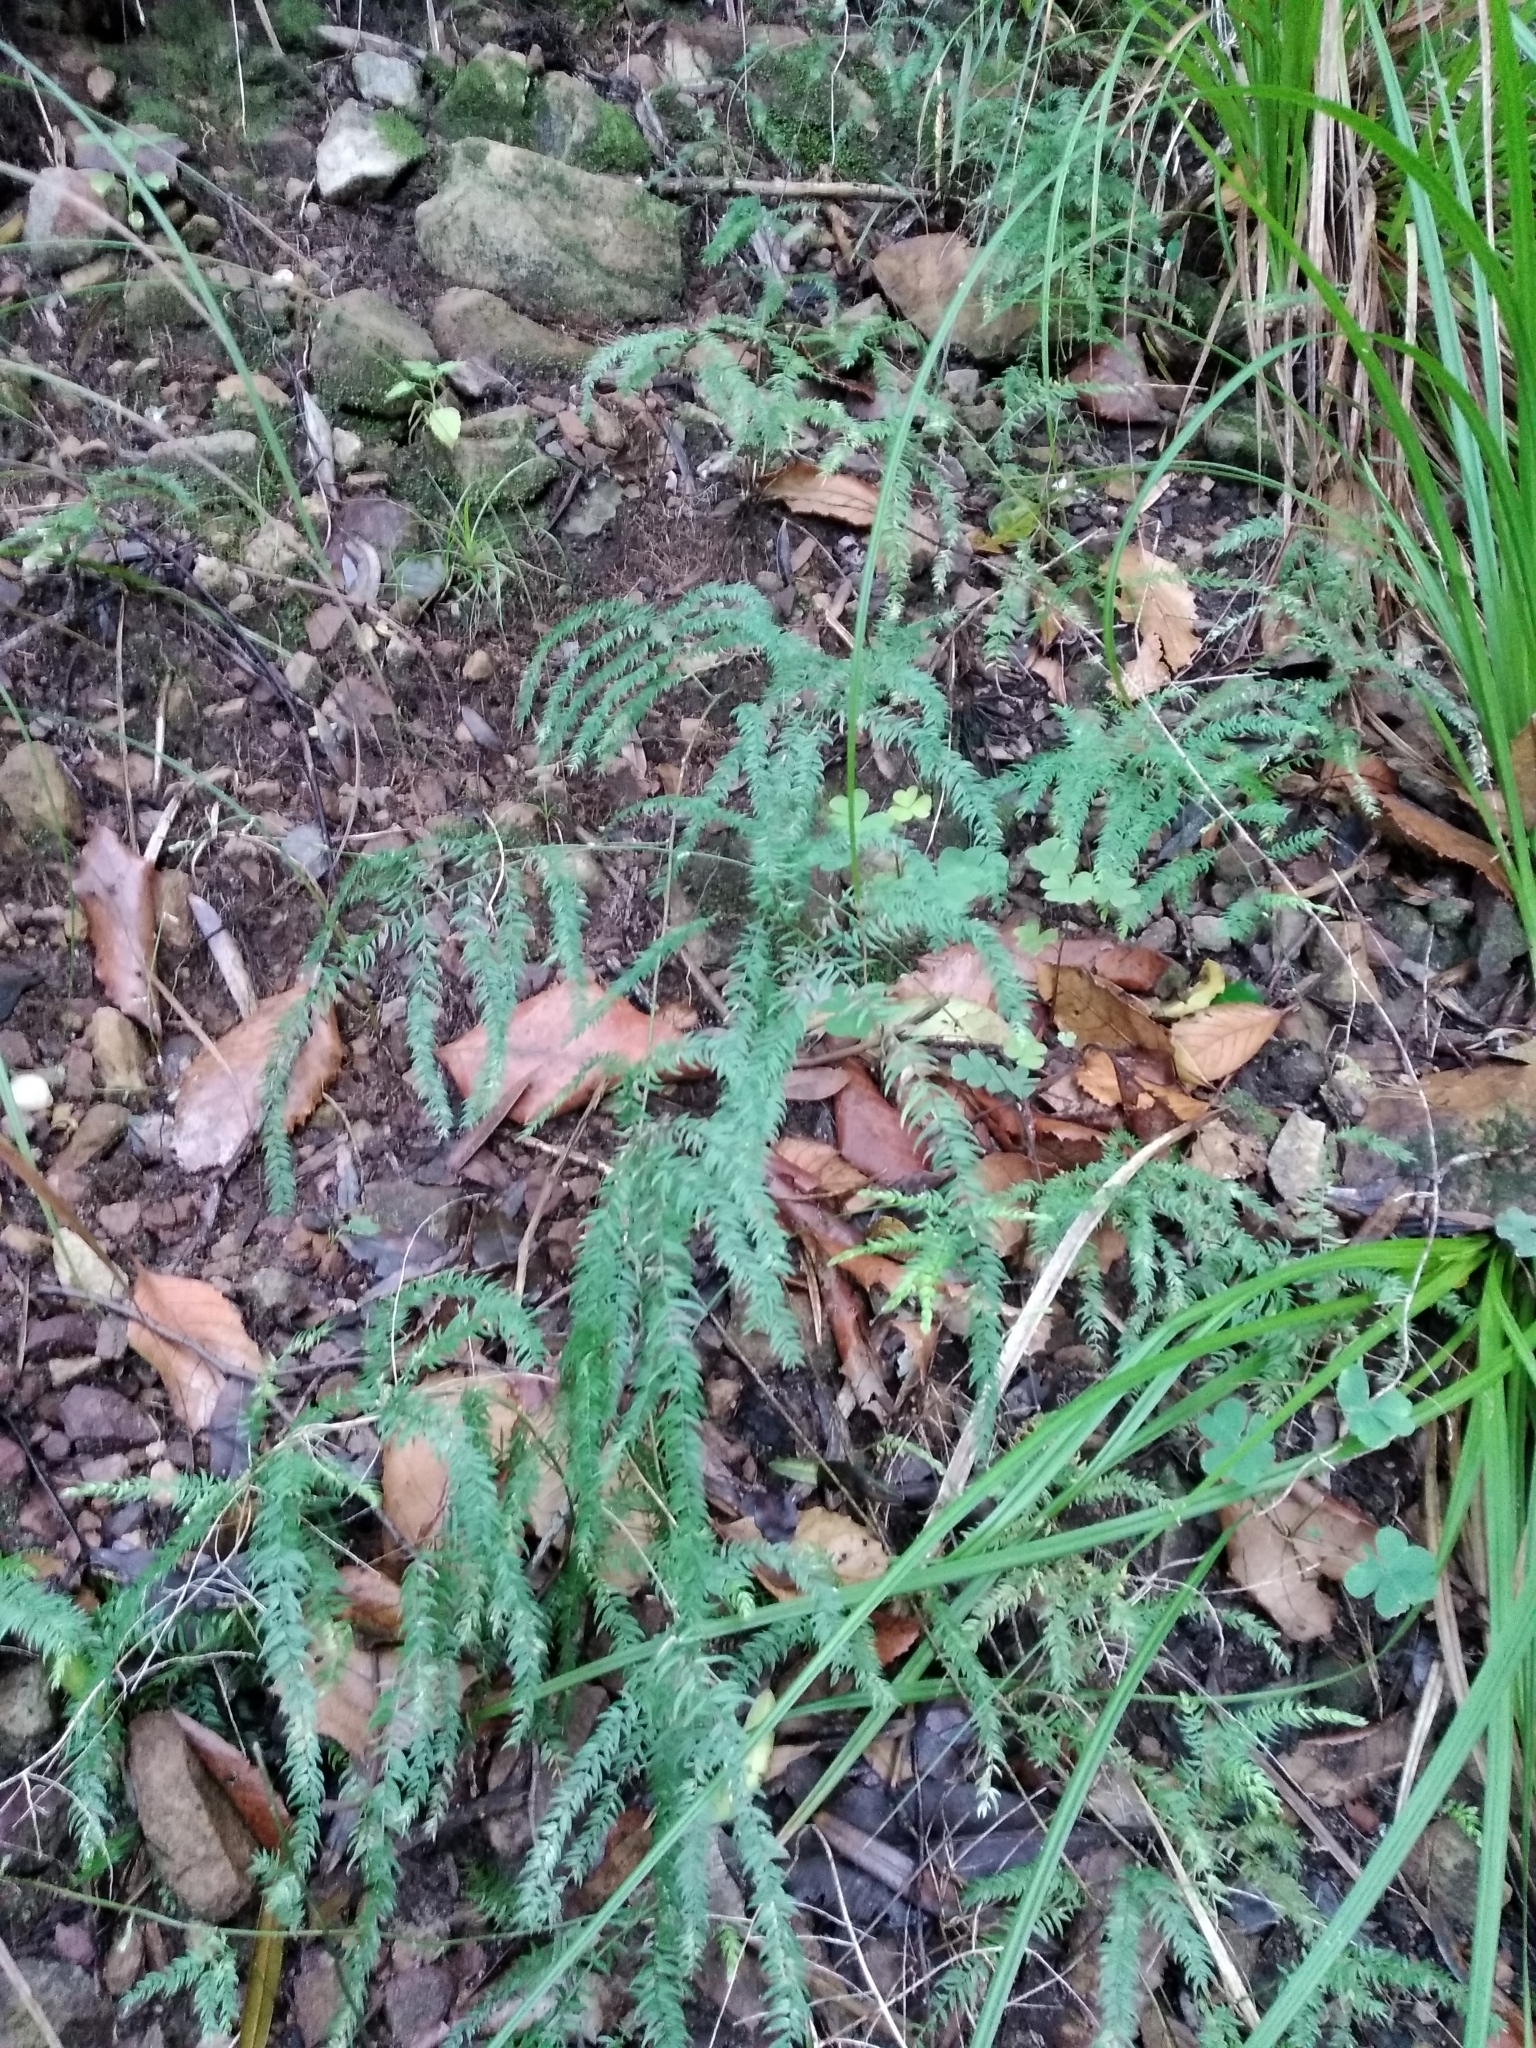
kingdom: Plantae
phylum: Tracheophyta
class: Liliopsida
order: Asparagales
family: Asparagaceae
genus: Asparagus
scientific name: Asparagus scandens
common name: Asparagus-fern
